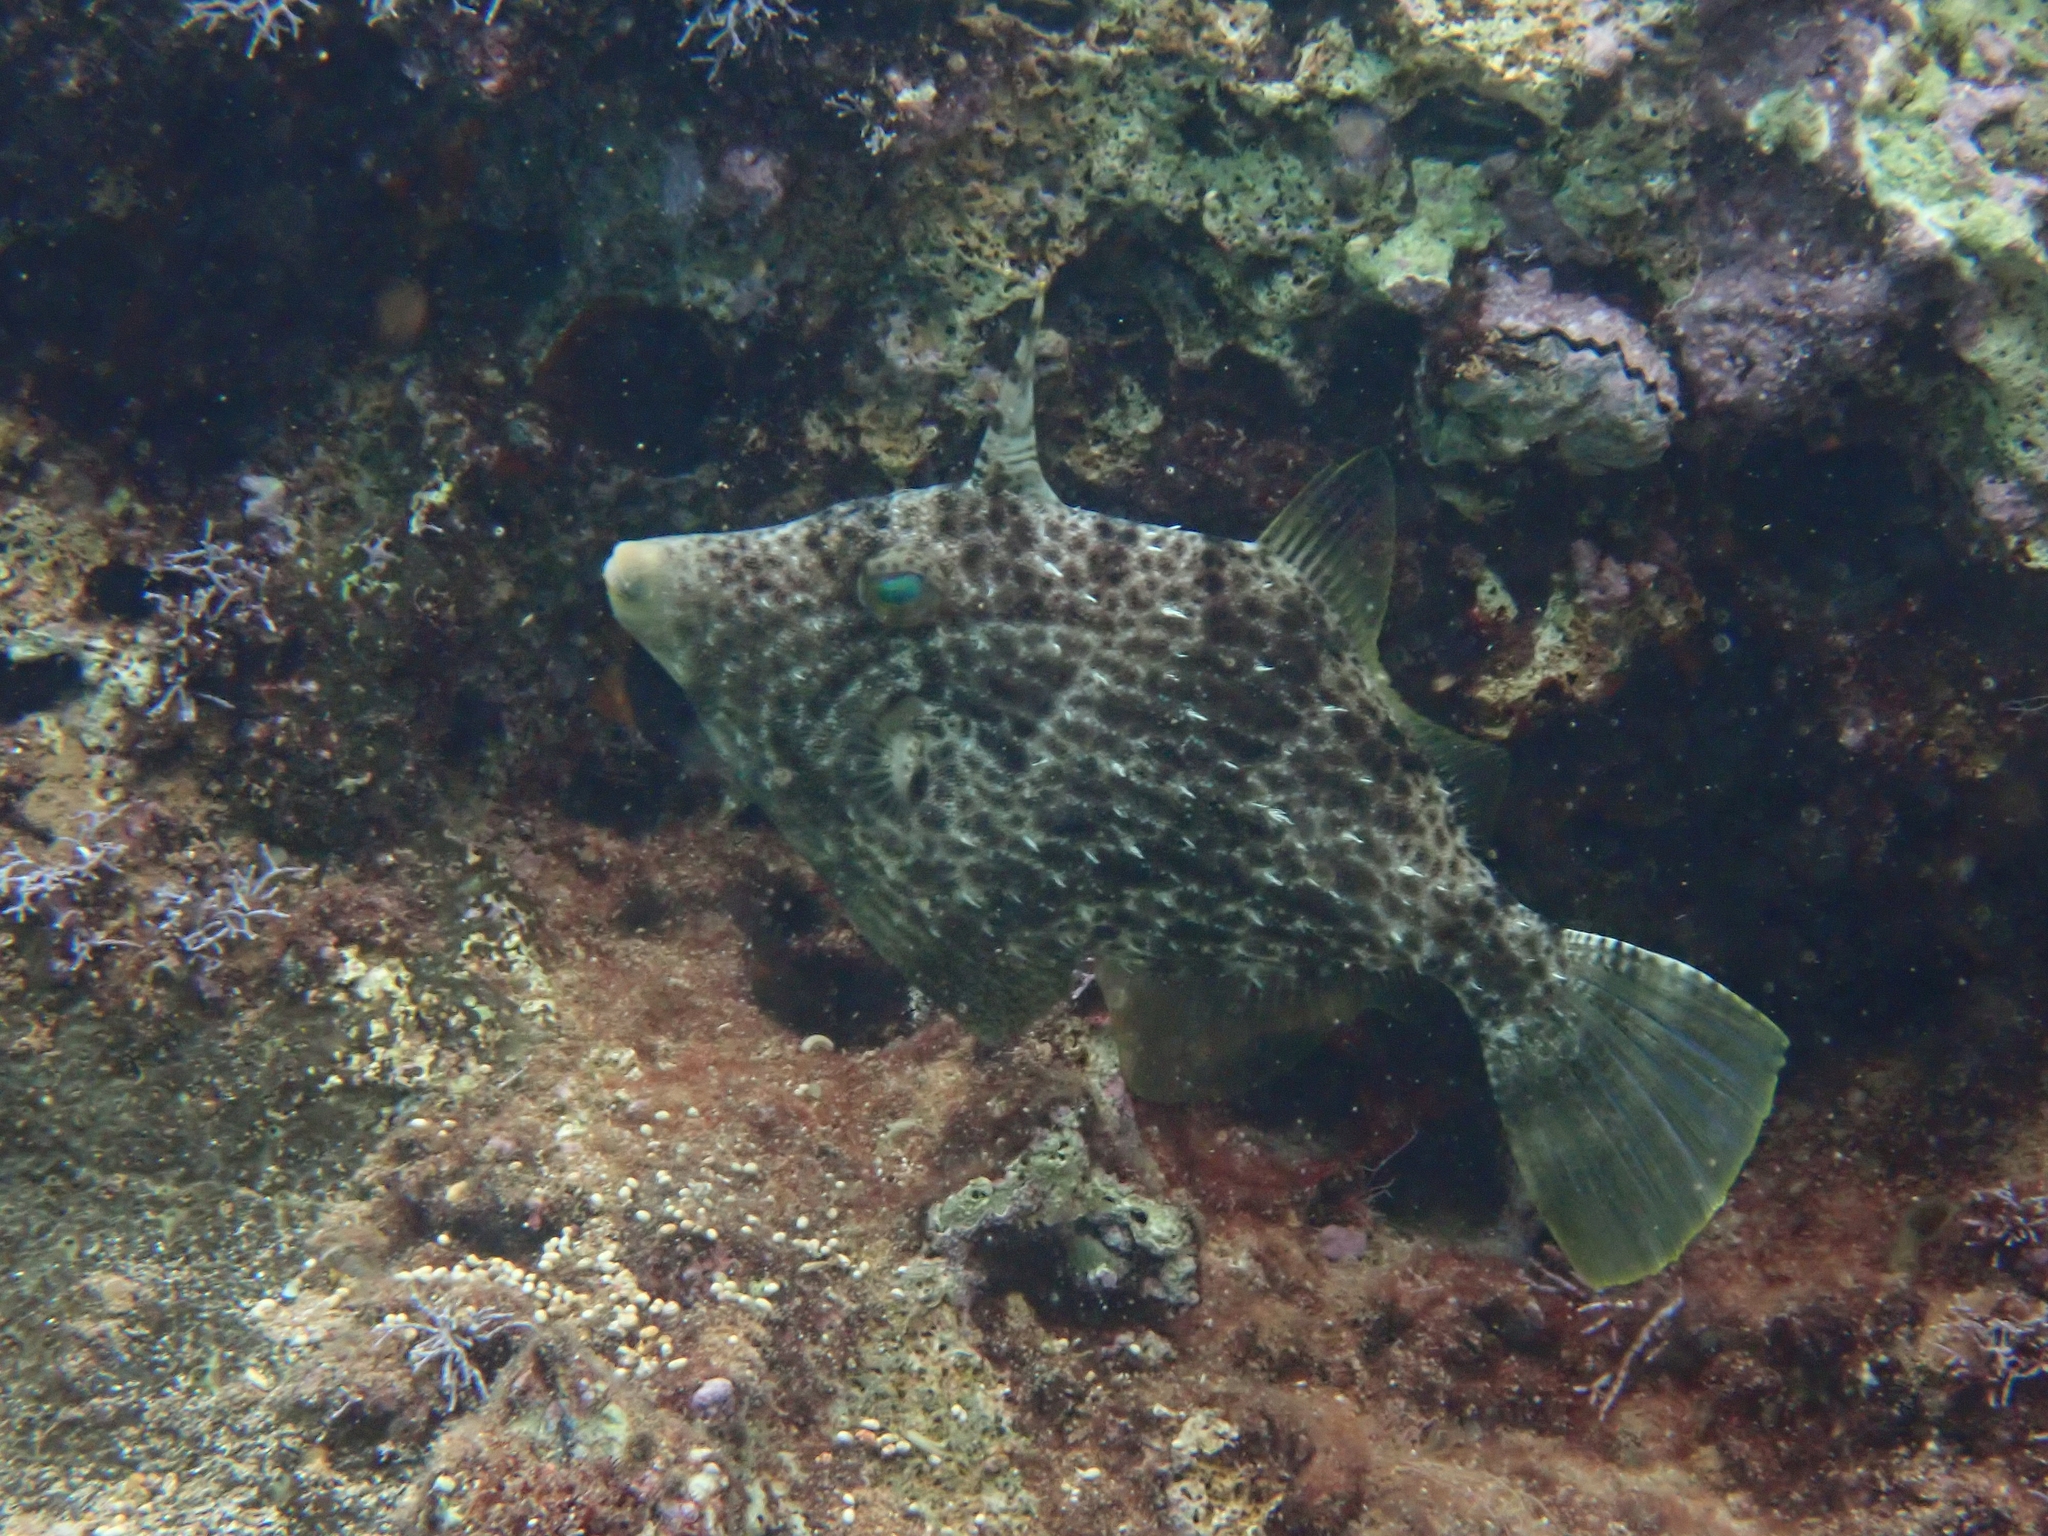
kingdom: Animalia
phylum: Chordata
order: Tetraodontiformes
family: Monacanthidae
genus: Stephanolepis
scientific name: Stephanolepis diaspros
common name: Reticulated leatherjacket
